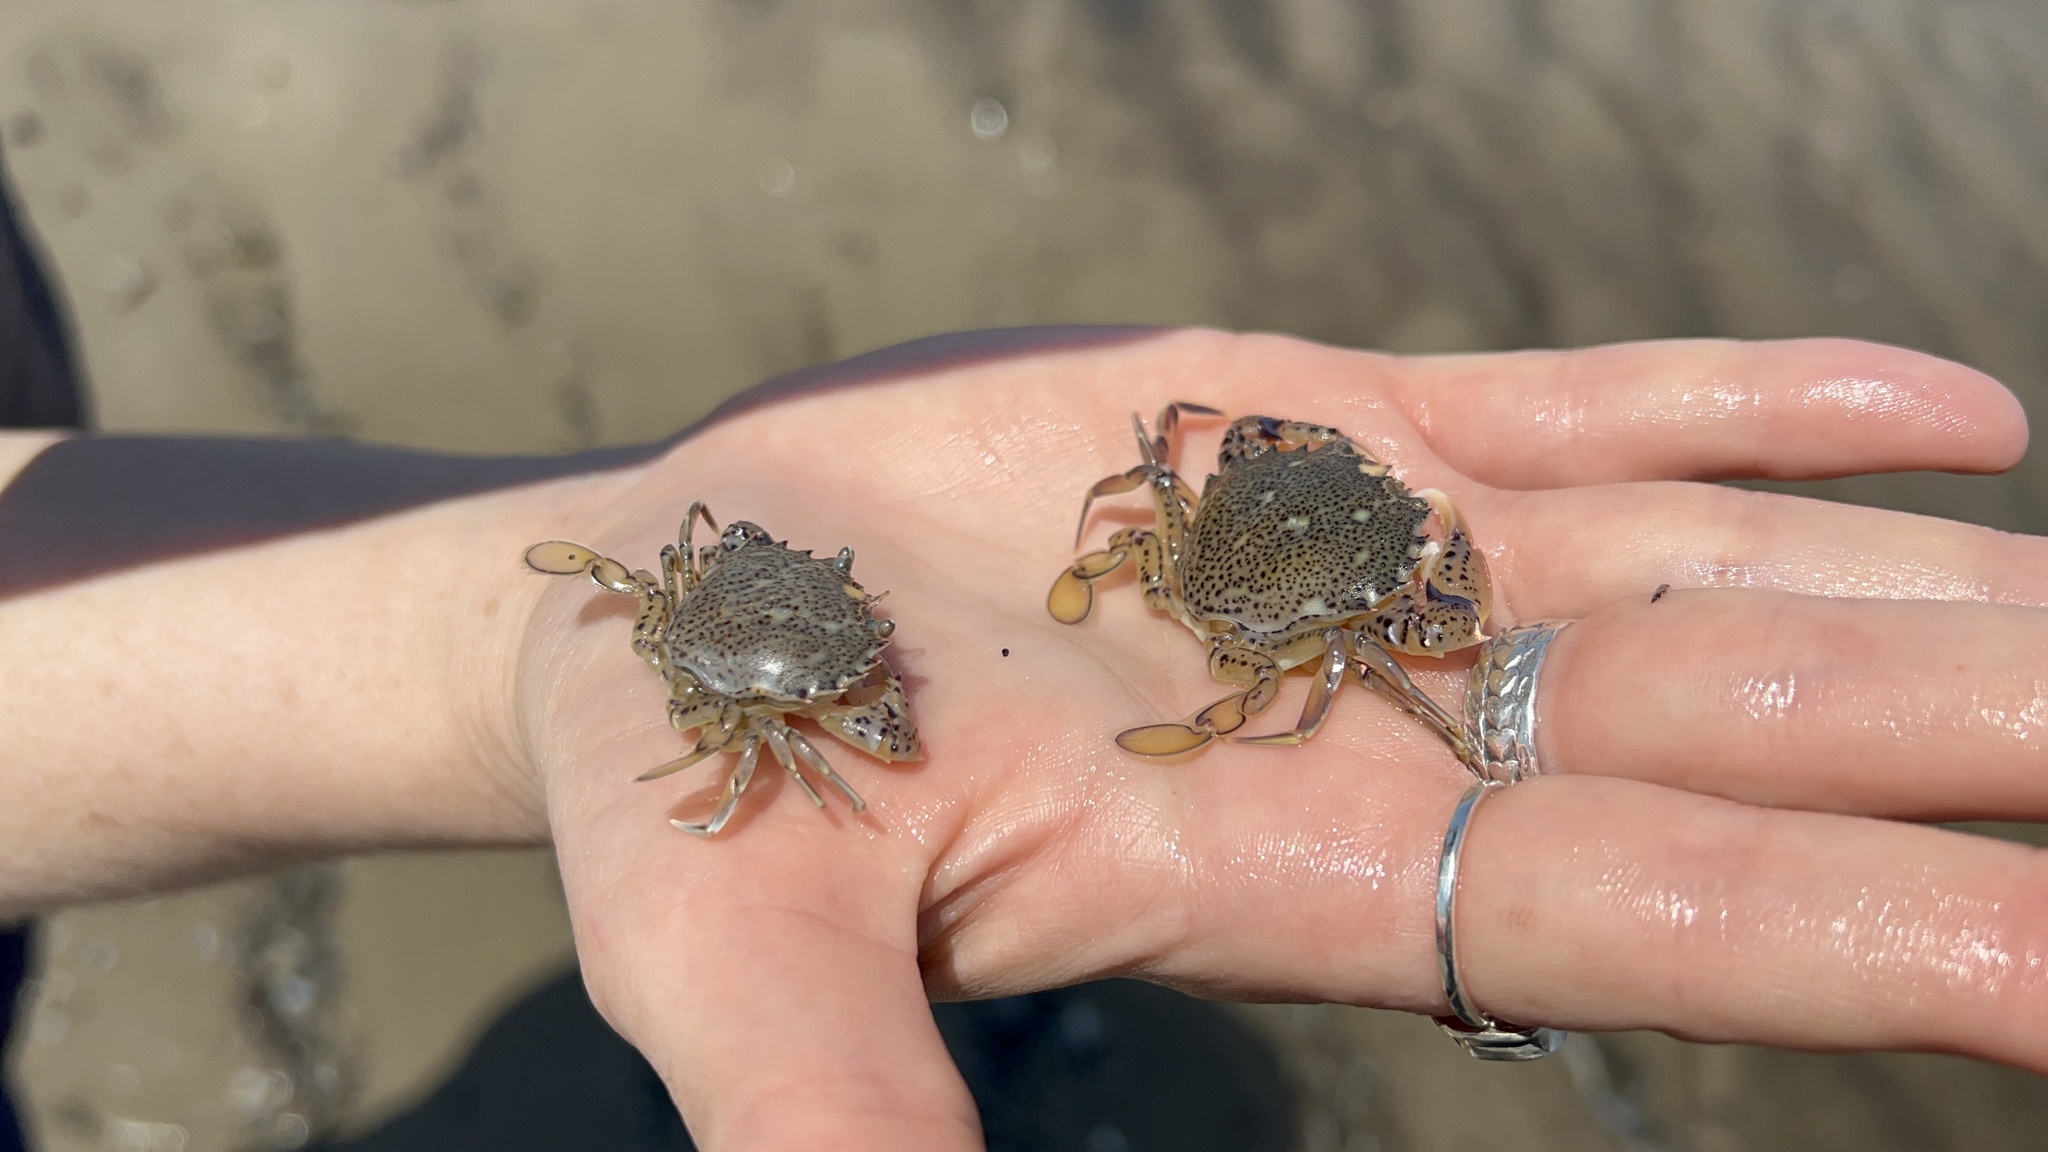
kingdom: Animalia
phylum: Arthropoda
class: Malacostraca
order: Decapoda
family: Ovalipidae
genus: Ovalipes
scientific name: Ovalipes ocellatus
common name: Lady crab
